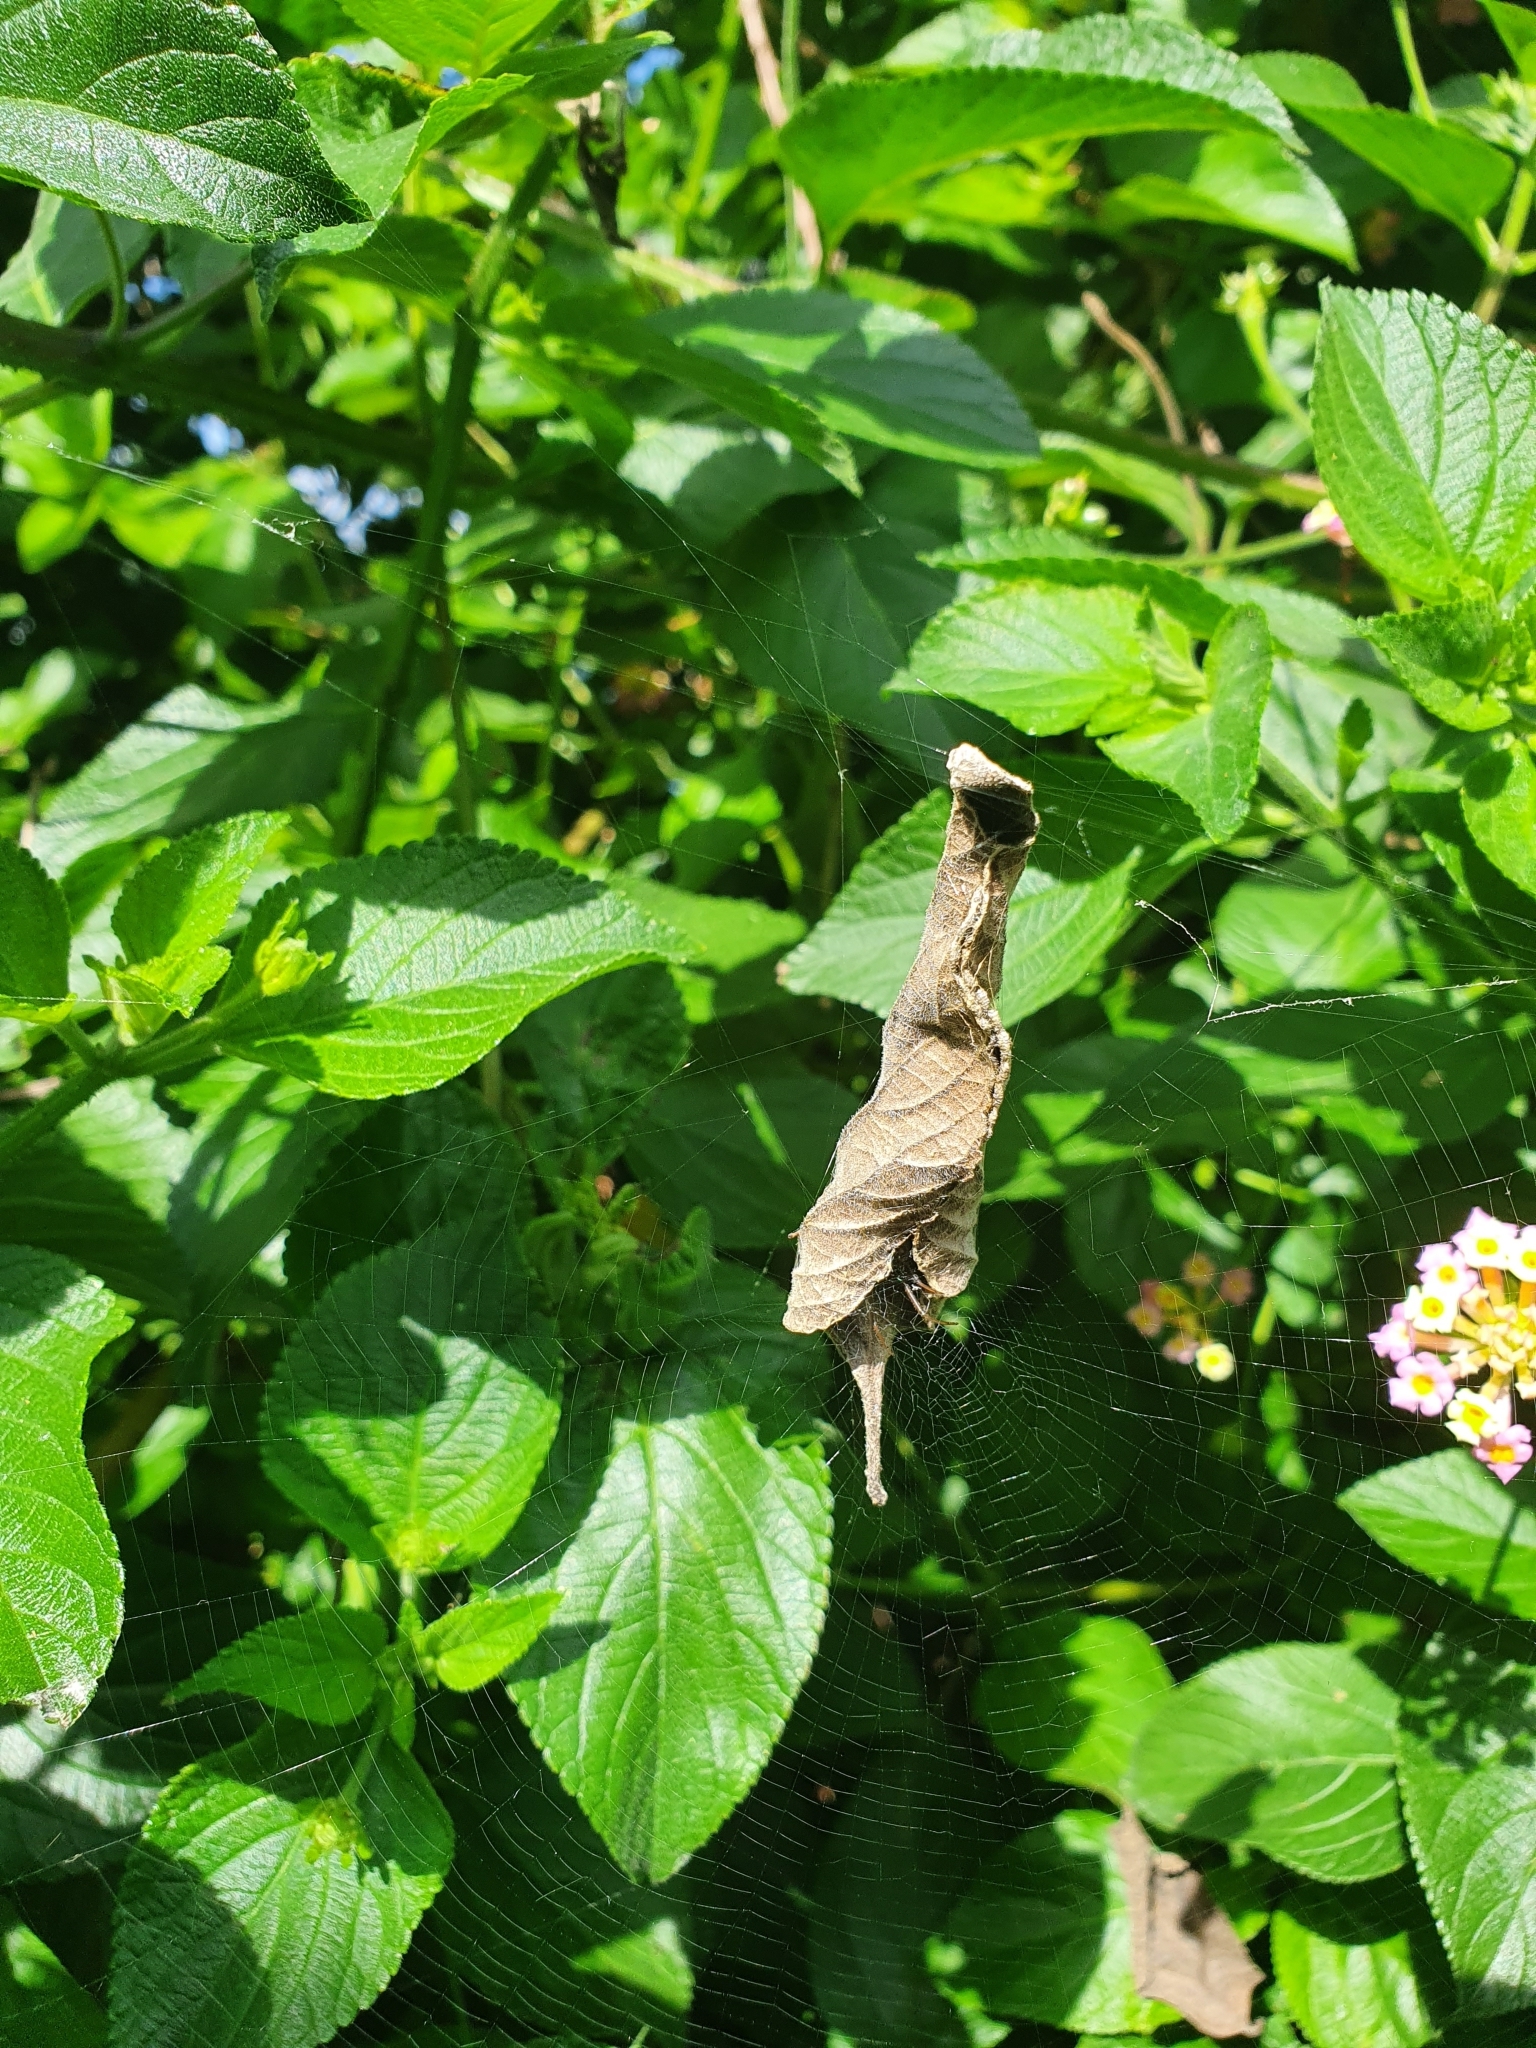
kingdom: Animalia
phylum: Arthropoda
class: Arachnida
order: Araneae
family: Araneidae
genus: Phonognatha
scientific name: Phonognatha graeffei
